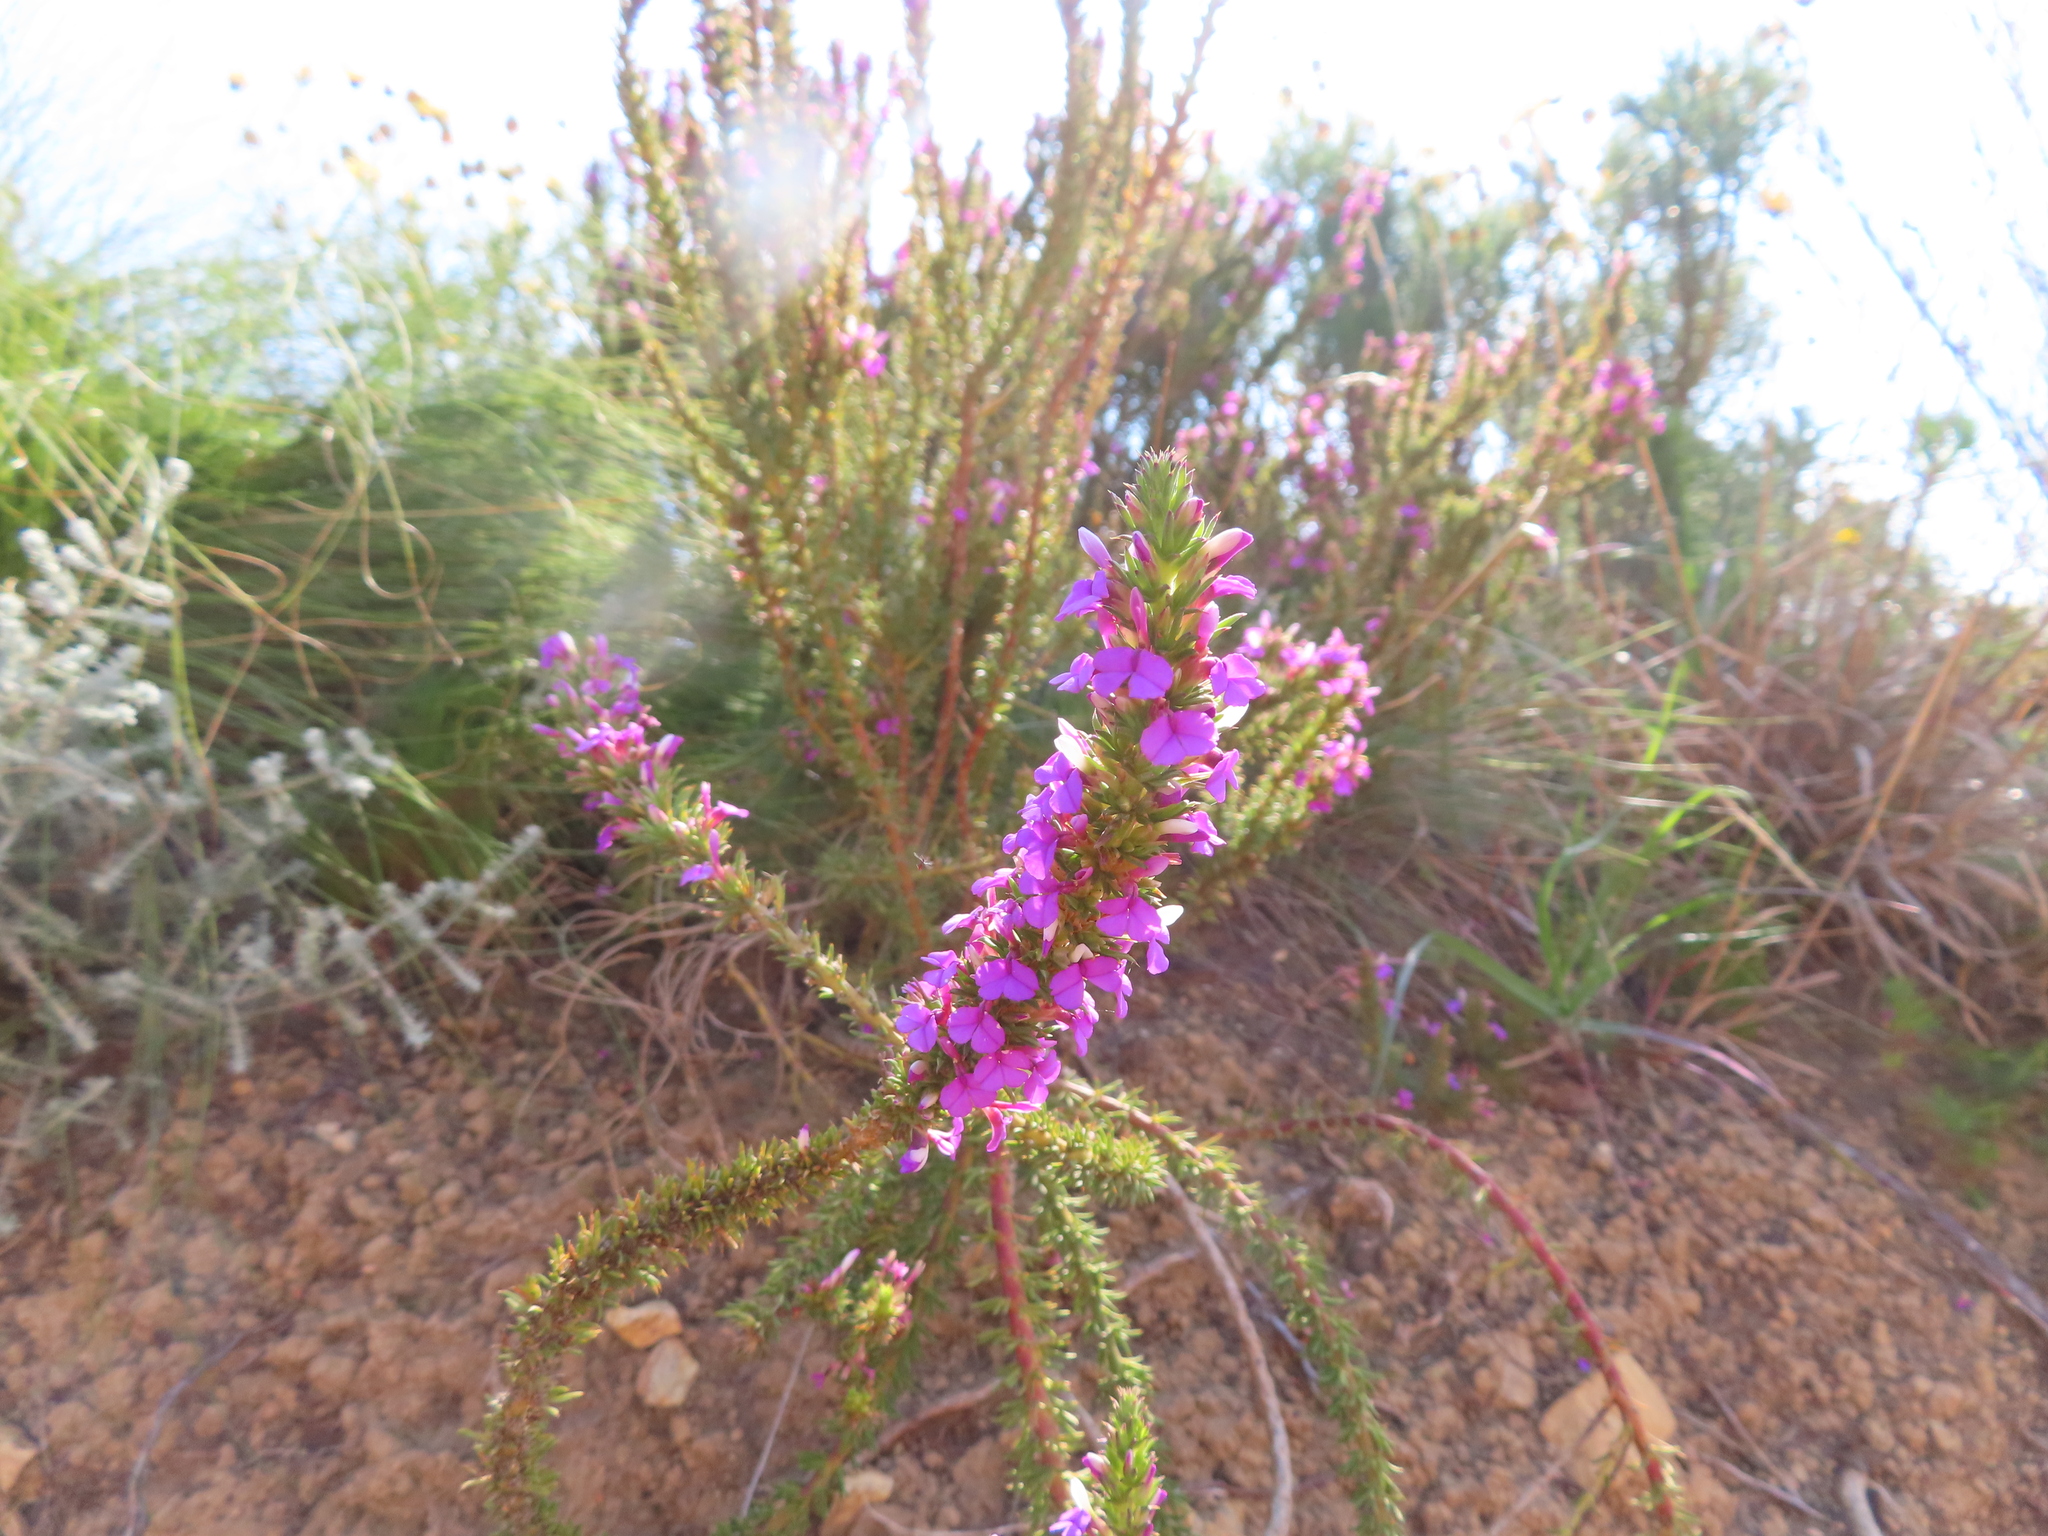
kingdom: Plantae
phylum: Tracheophyta
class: Magnoliopsida
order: Fabales
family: Polygalaceae
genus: Muraltia
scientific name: Muraltia heisteria
